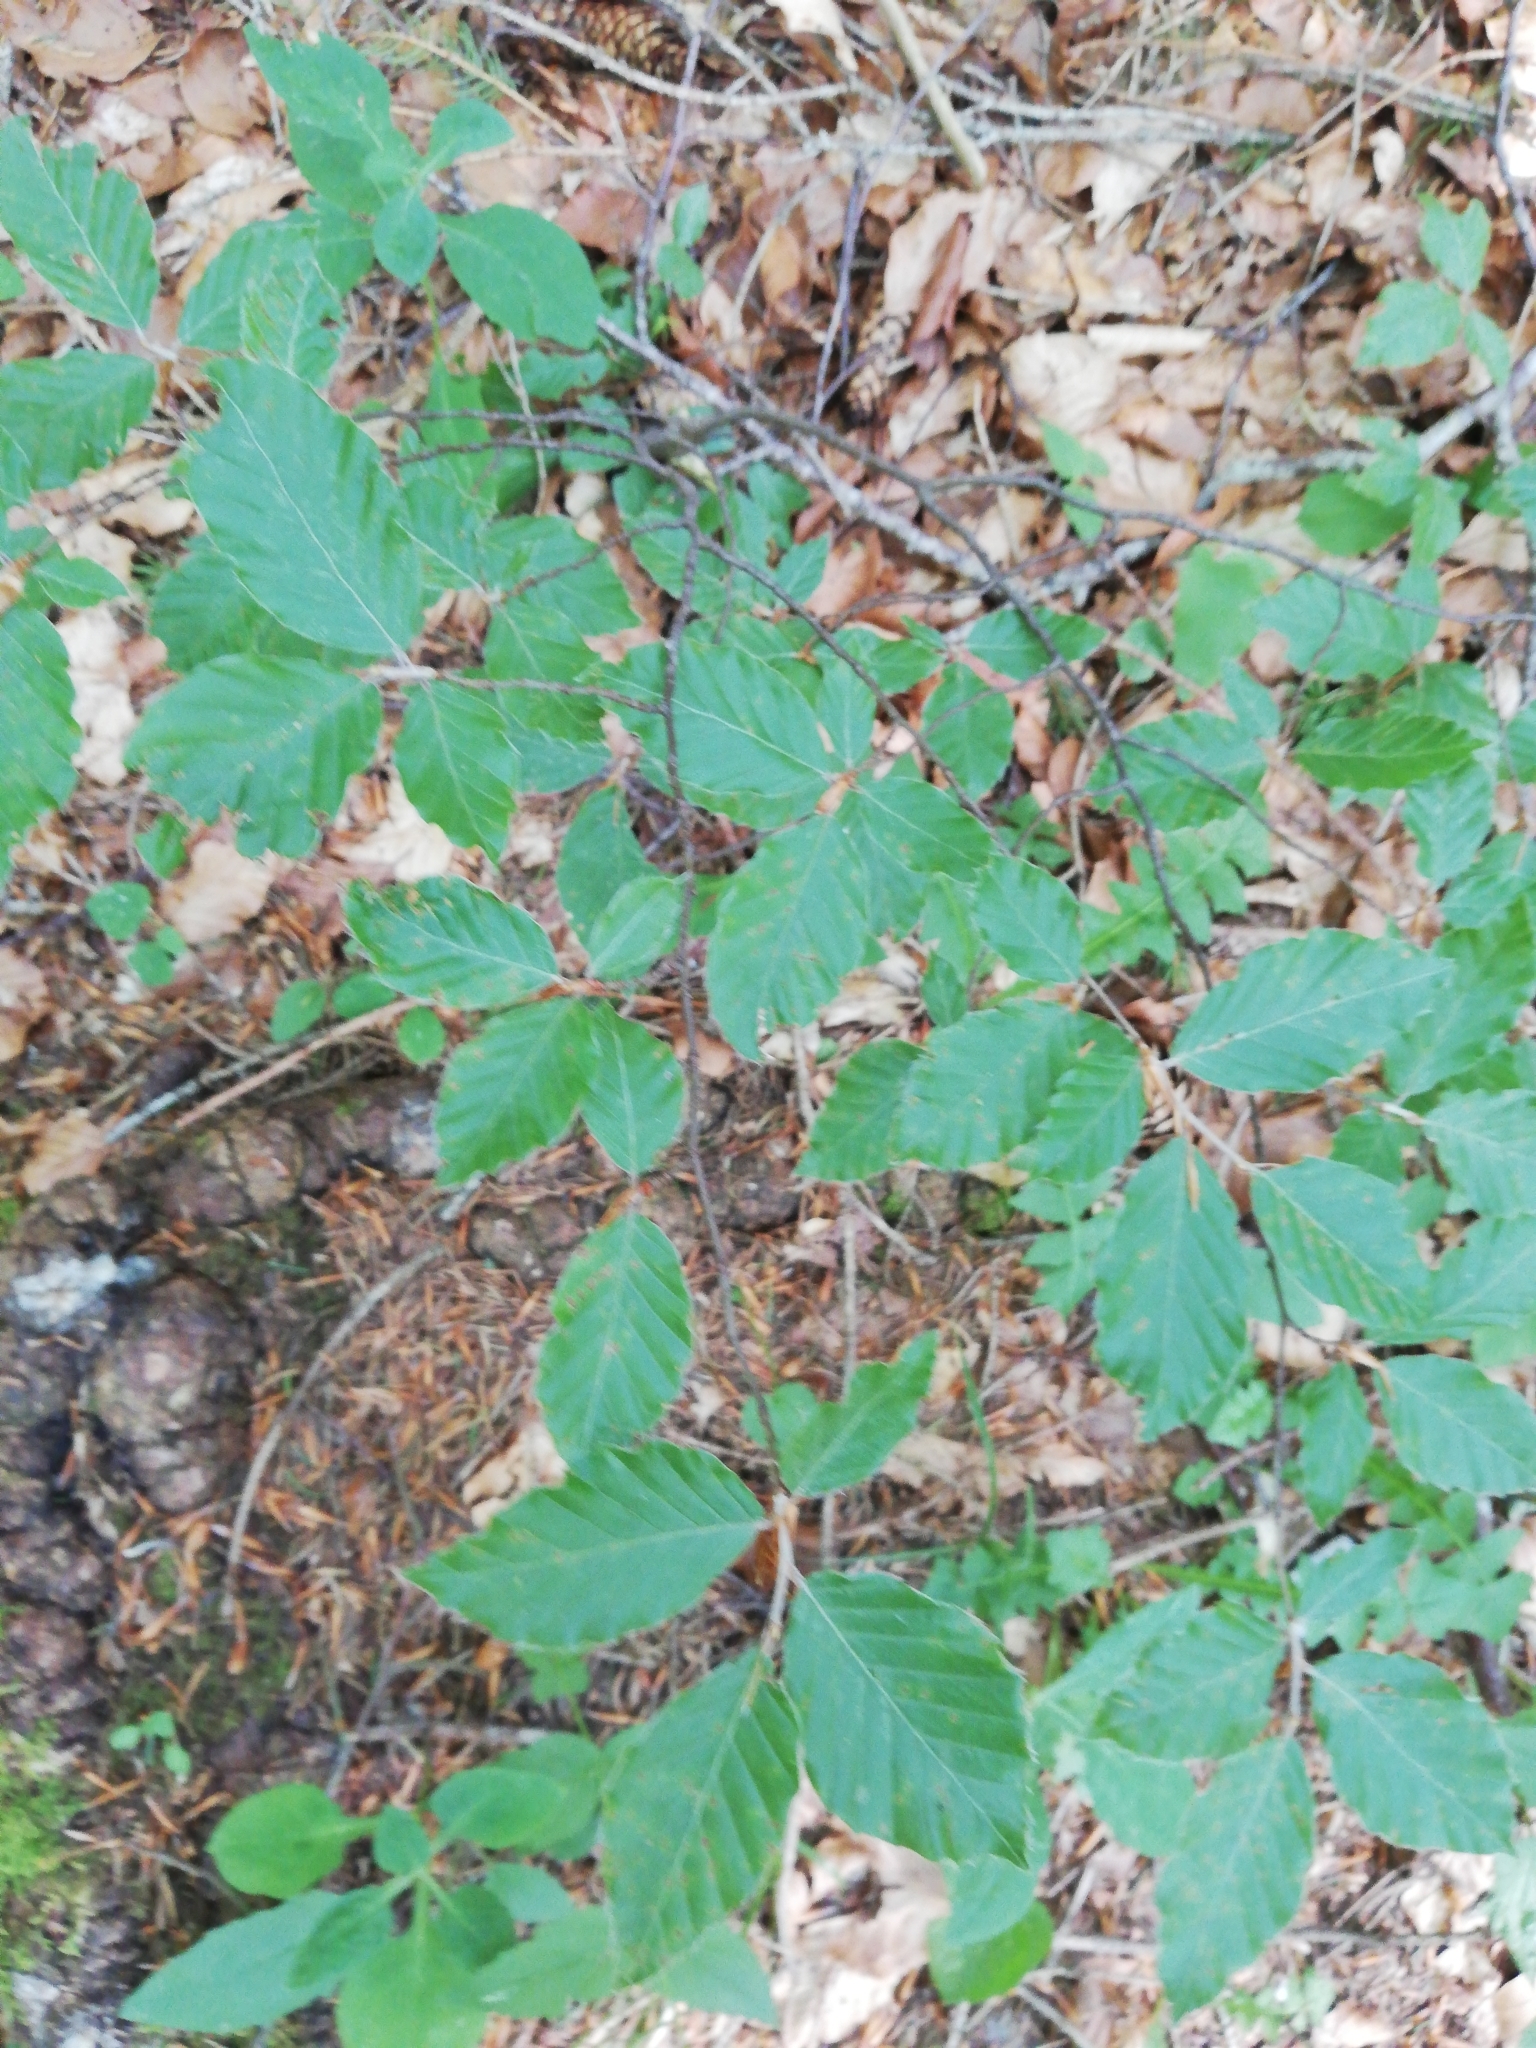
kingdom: Plantae
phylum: Tracheophyta
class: Magnoliopsida
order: Fagales
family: Fagaceae
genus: Fagus
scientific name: Fagus sylvatica
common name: Beech
